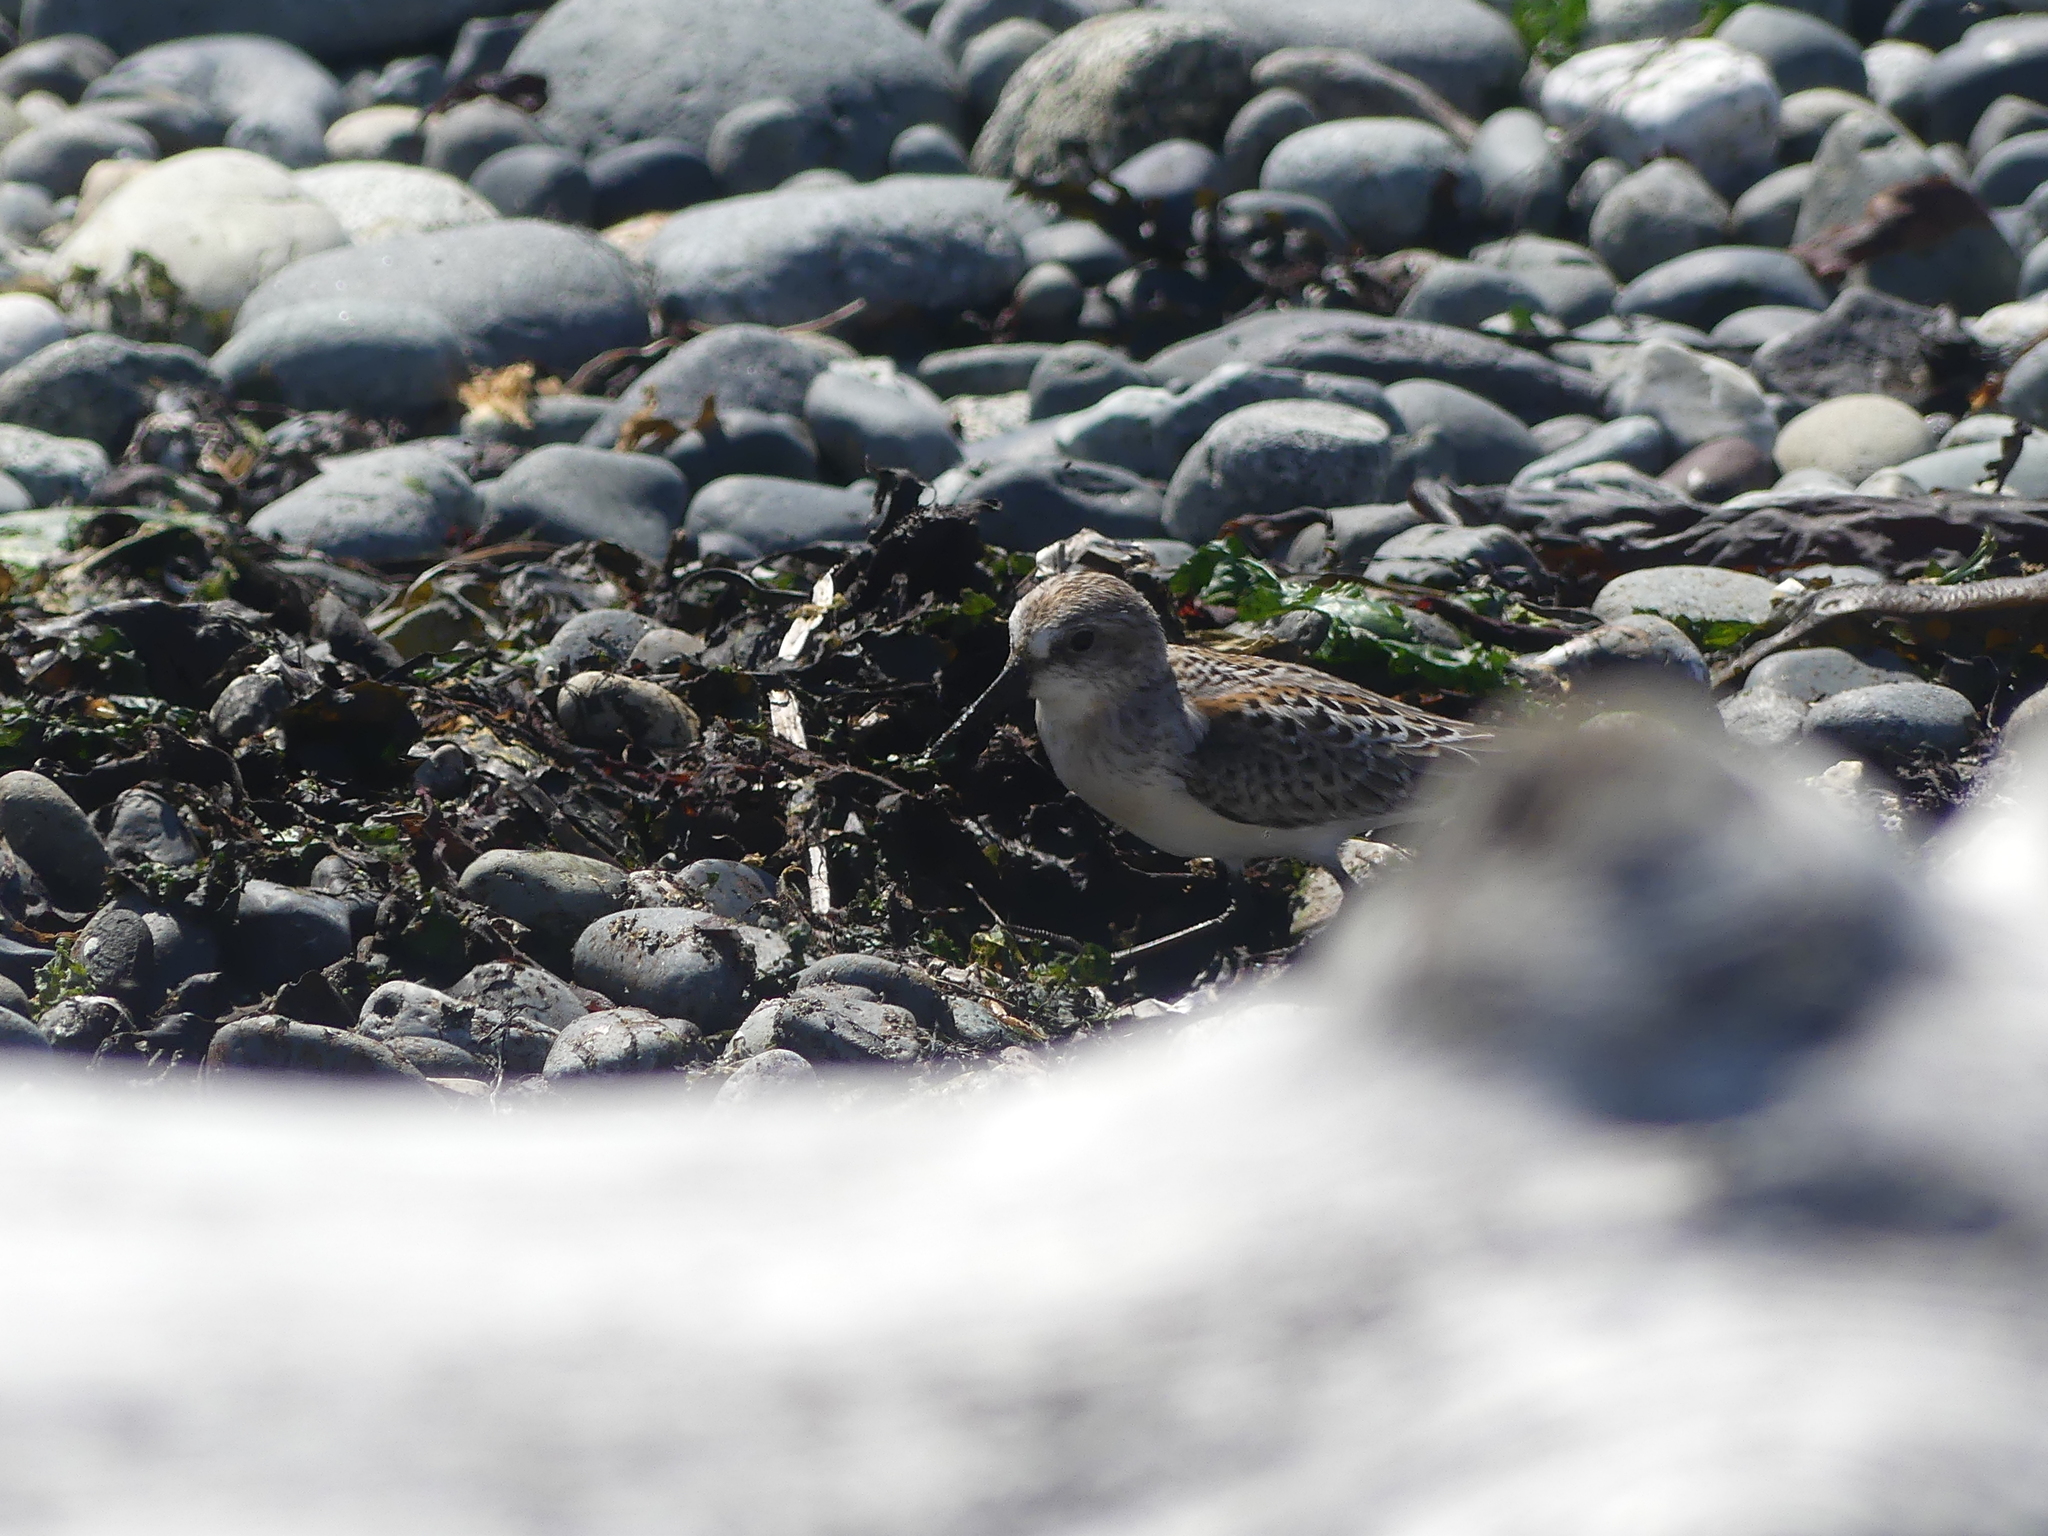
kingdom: Animalia
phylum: Chordata
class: Aves
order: Charadriiformes
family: Scolopacidae
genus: Calidris
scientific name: Calidris mauri
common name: Western sandpiper
